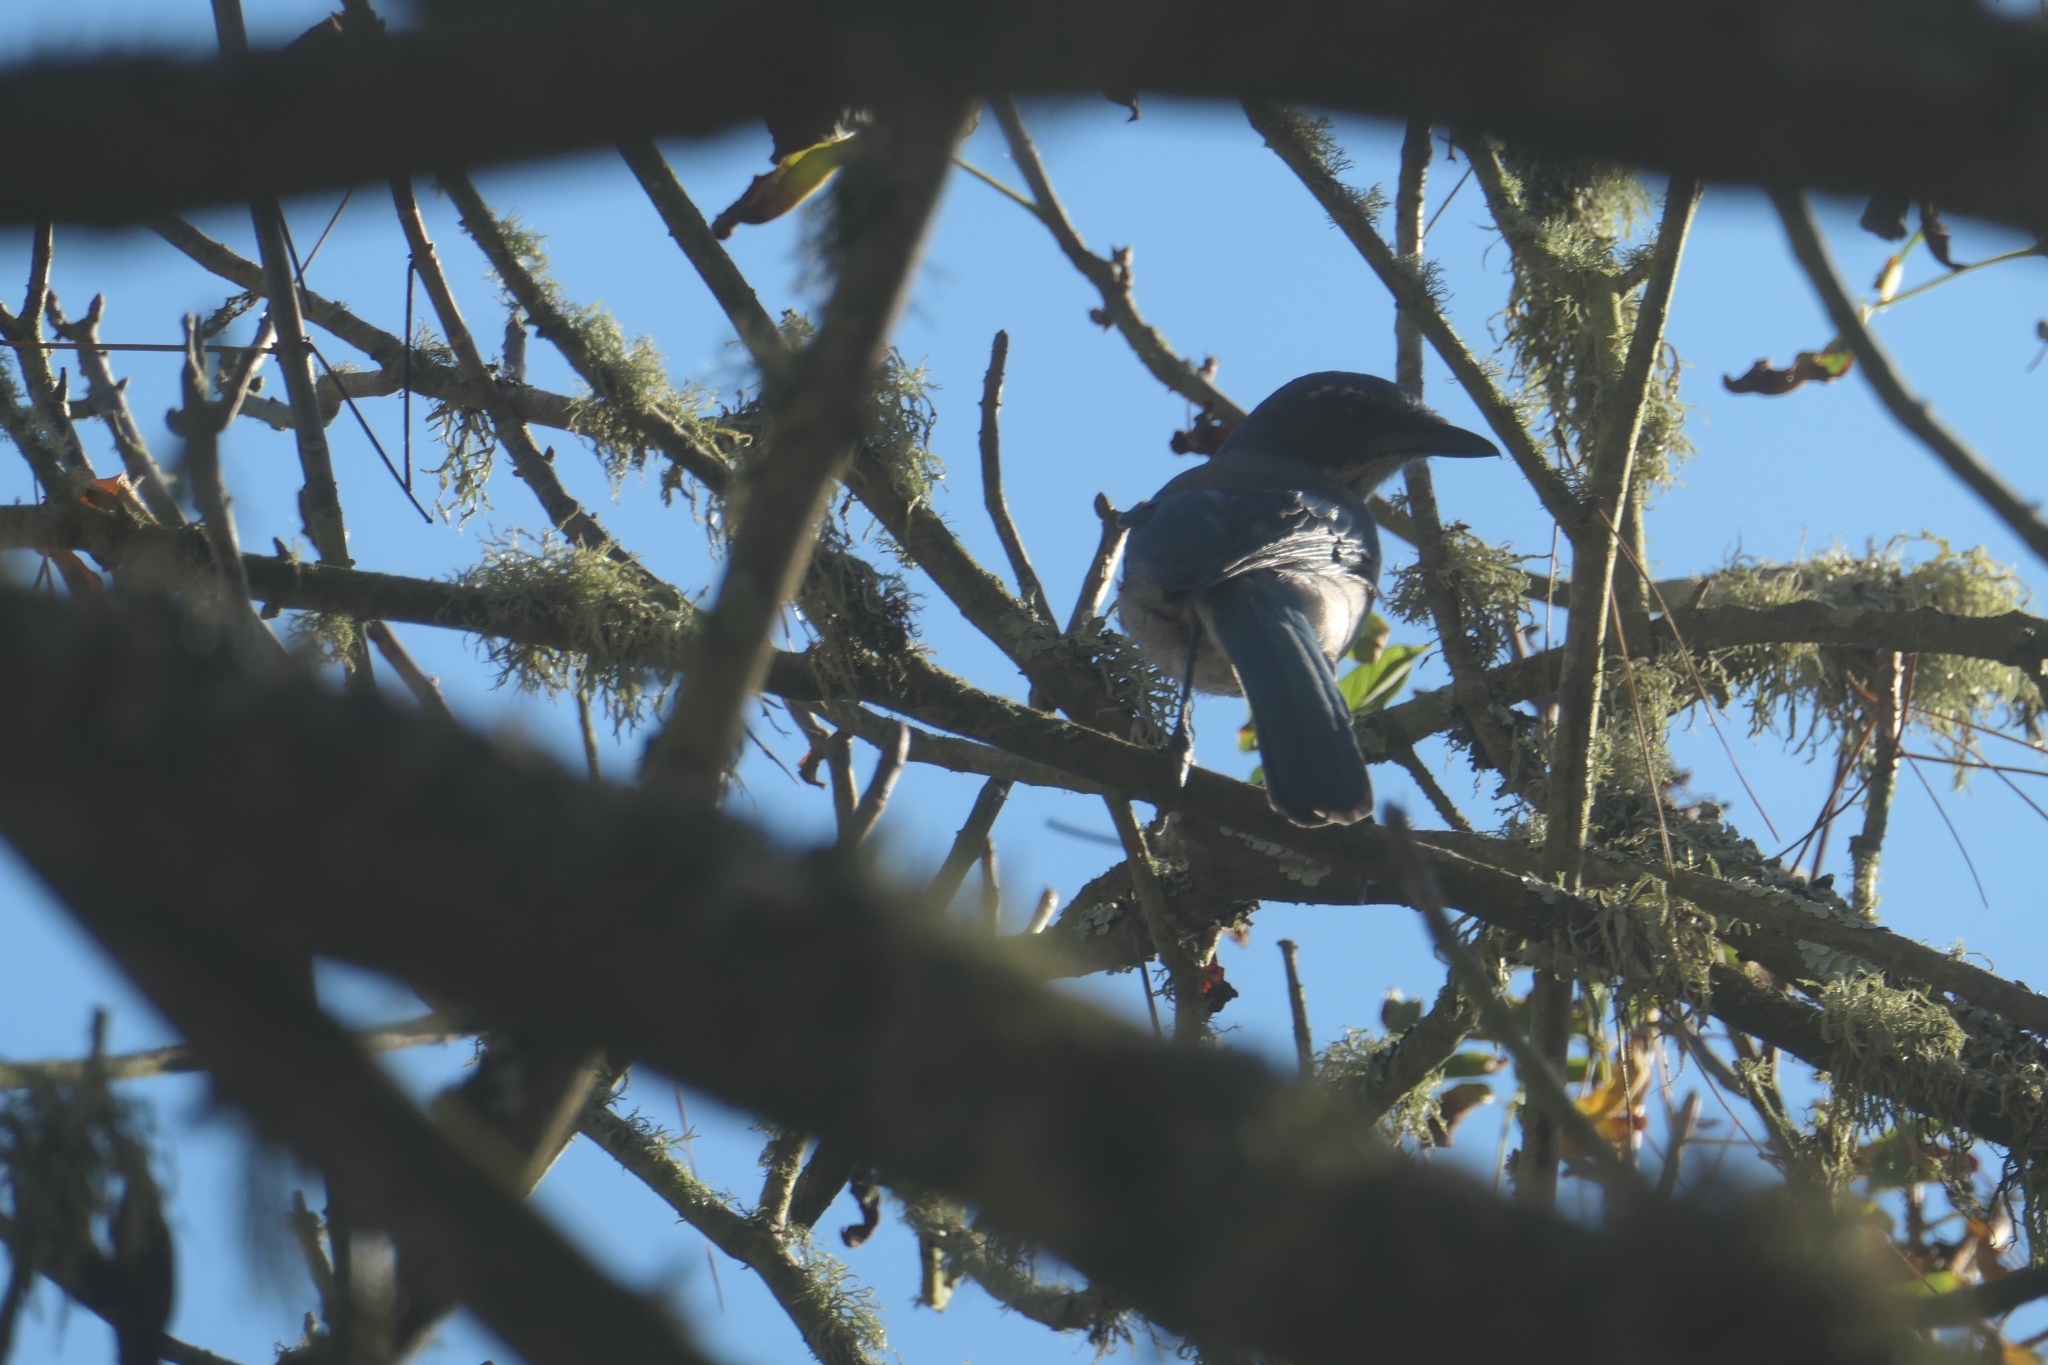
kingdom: Animalia
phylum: Chordata
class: Aves
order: Passeriformes
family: Corvidae
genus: Aphelocoma
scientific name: Aphelocoma californica
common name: California scrub-jay
